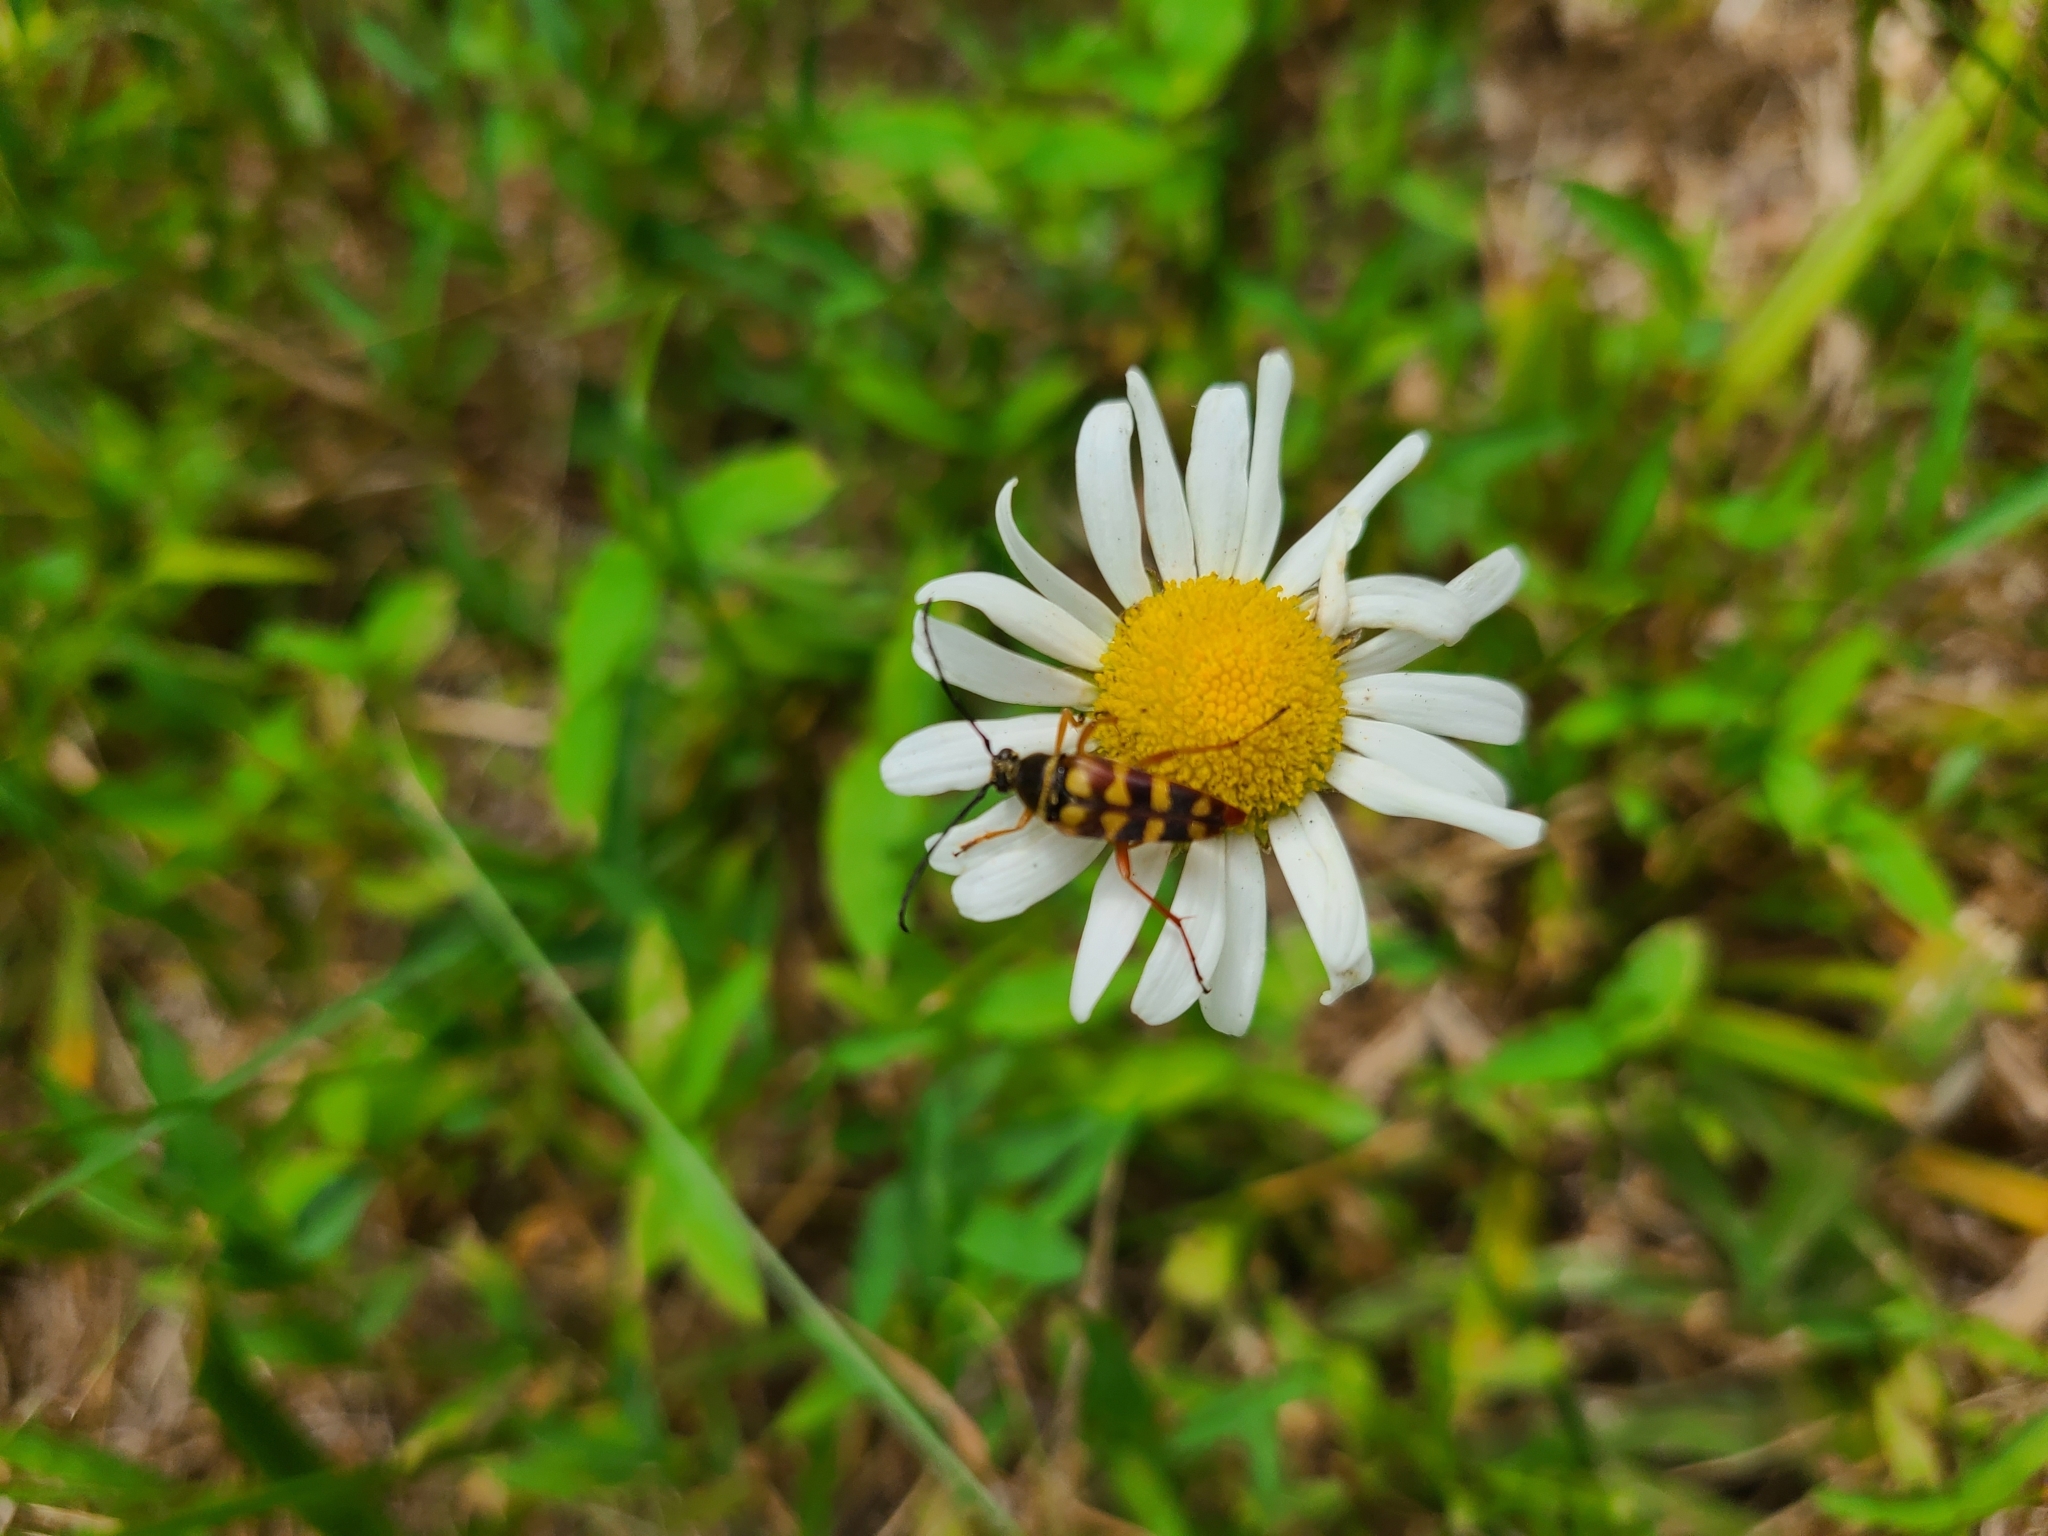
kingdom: Animalia
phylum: Arthropoda
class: Insecta
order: Coleoptera
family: Cerambycidae
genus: Typocerus
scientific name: Typocerus zebra
